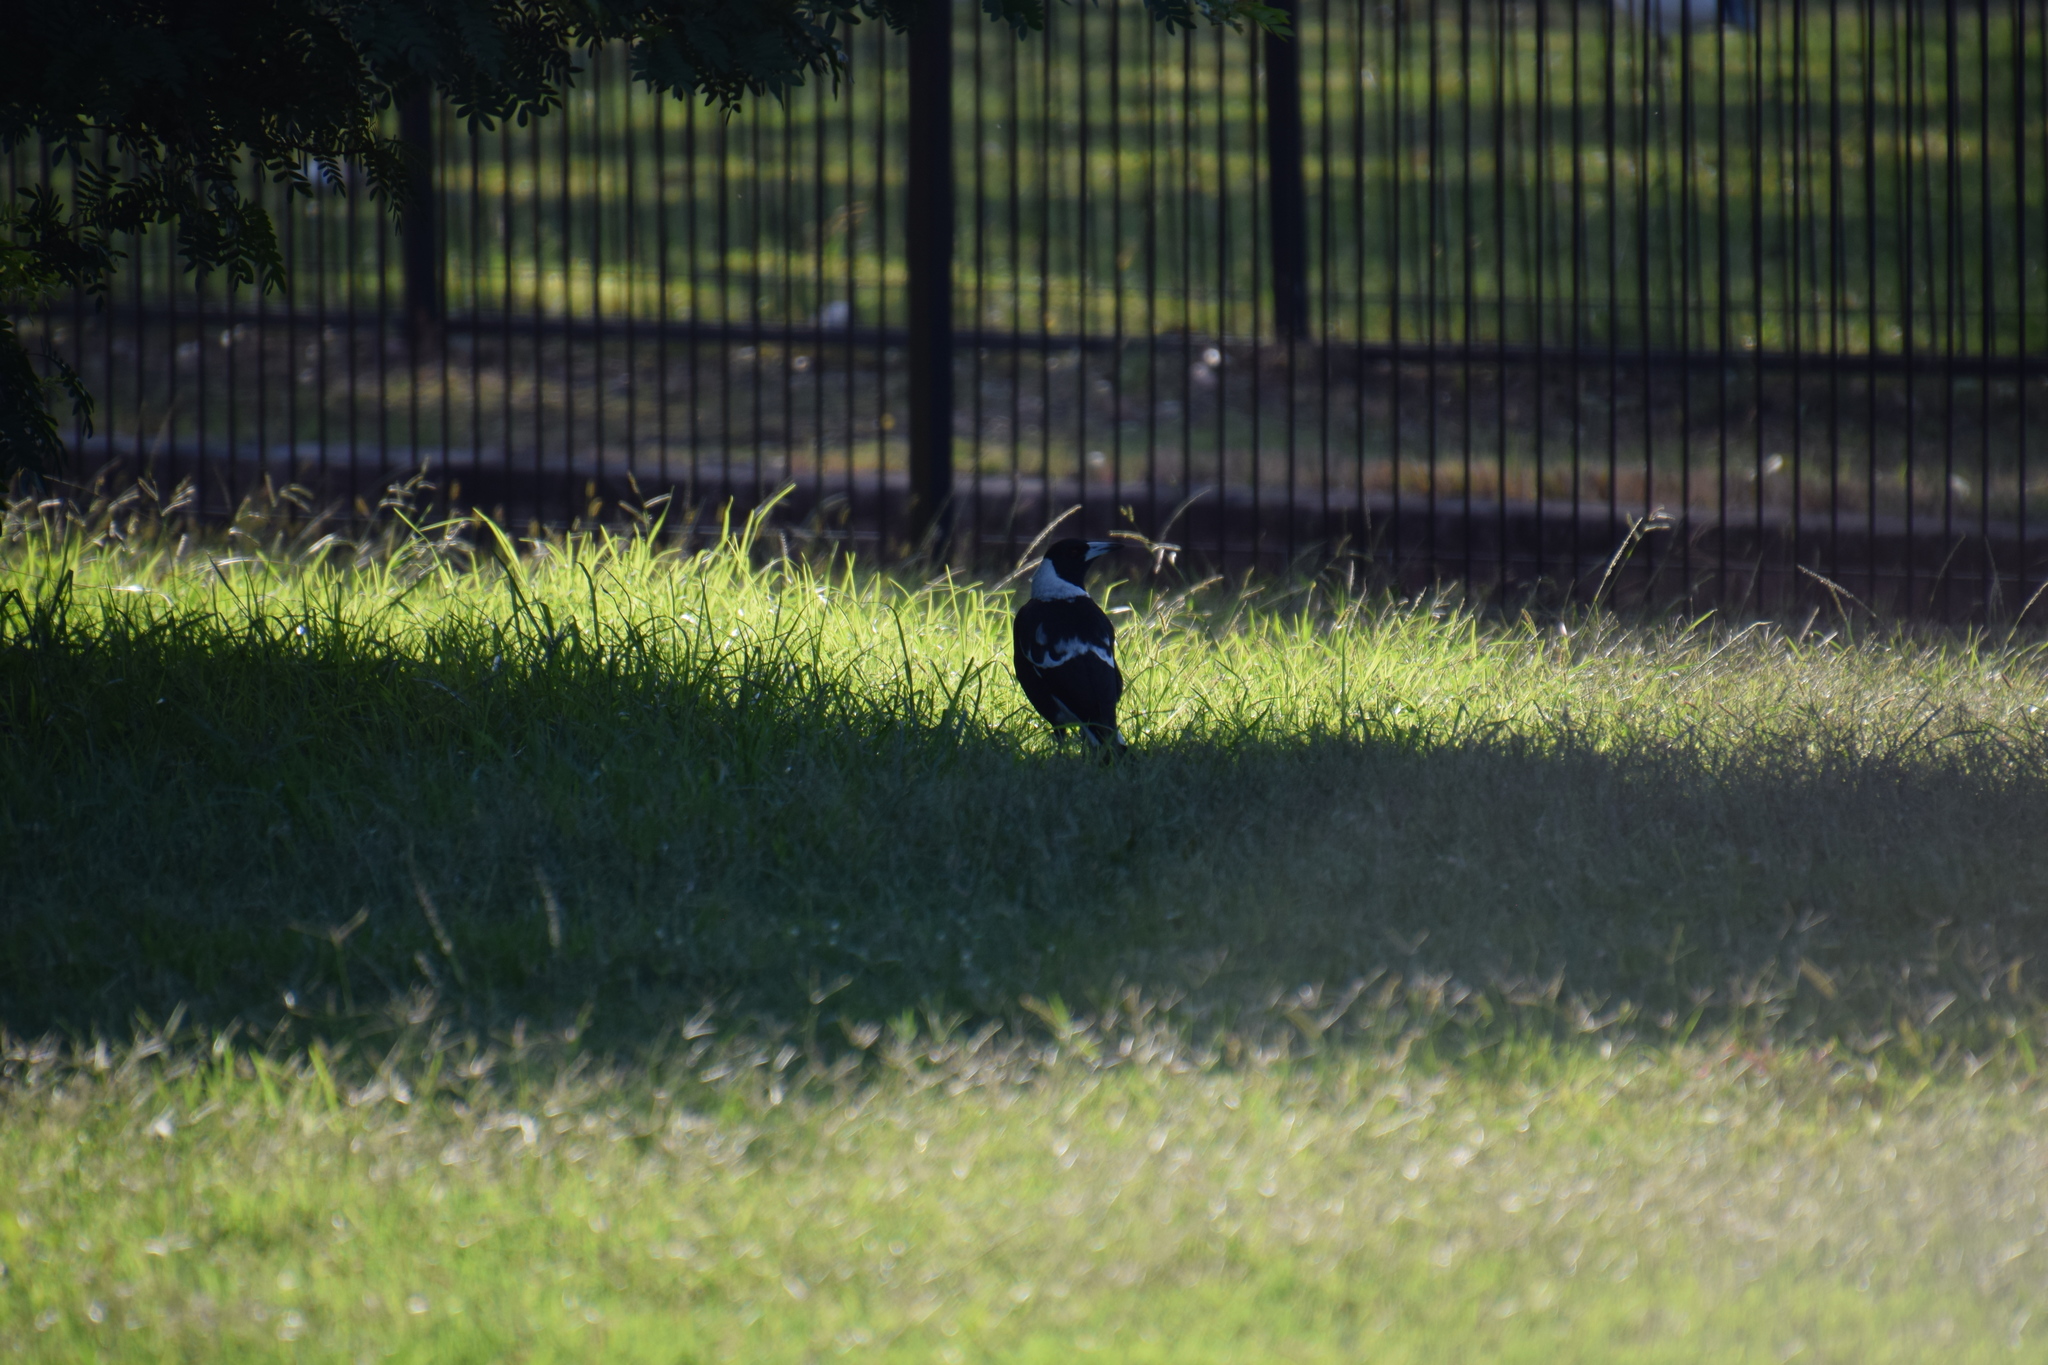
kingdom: Animalia
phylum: Chordata
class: Aves
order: Passeriformes
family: Cracticidae
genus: Gymnorhina
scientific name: Gymnorhina tibicen
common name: Australian magpie
